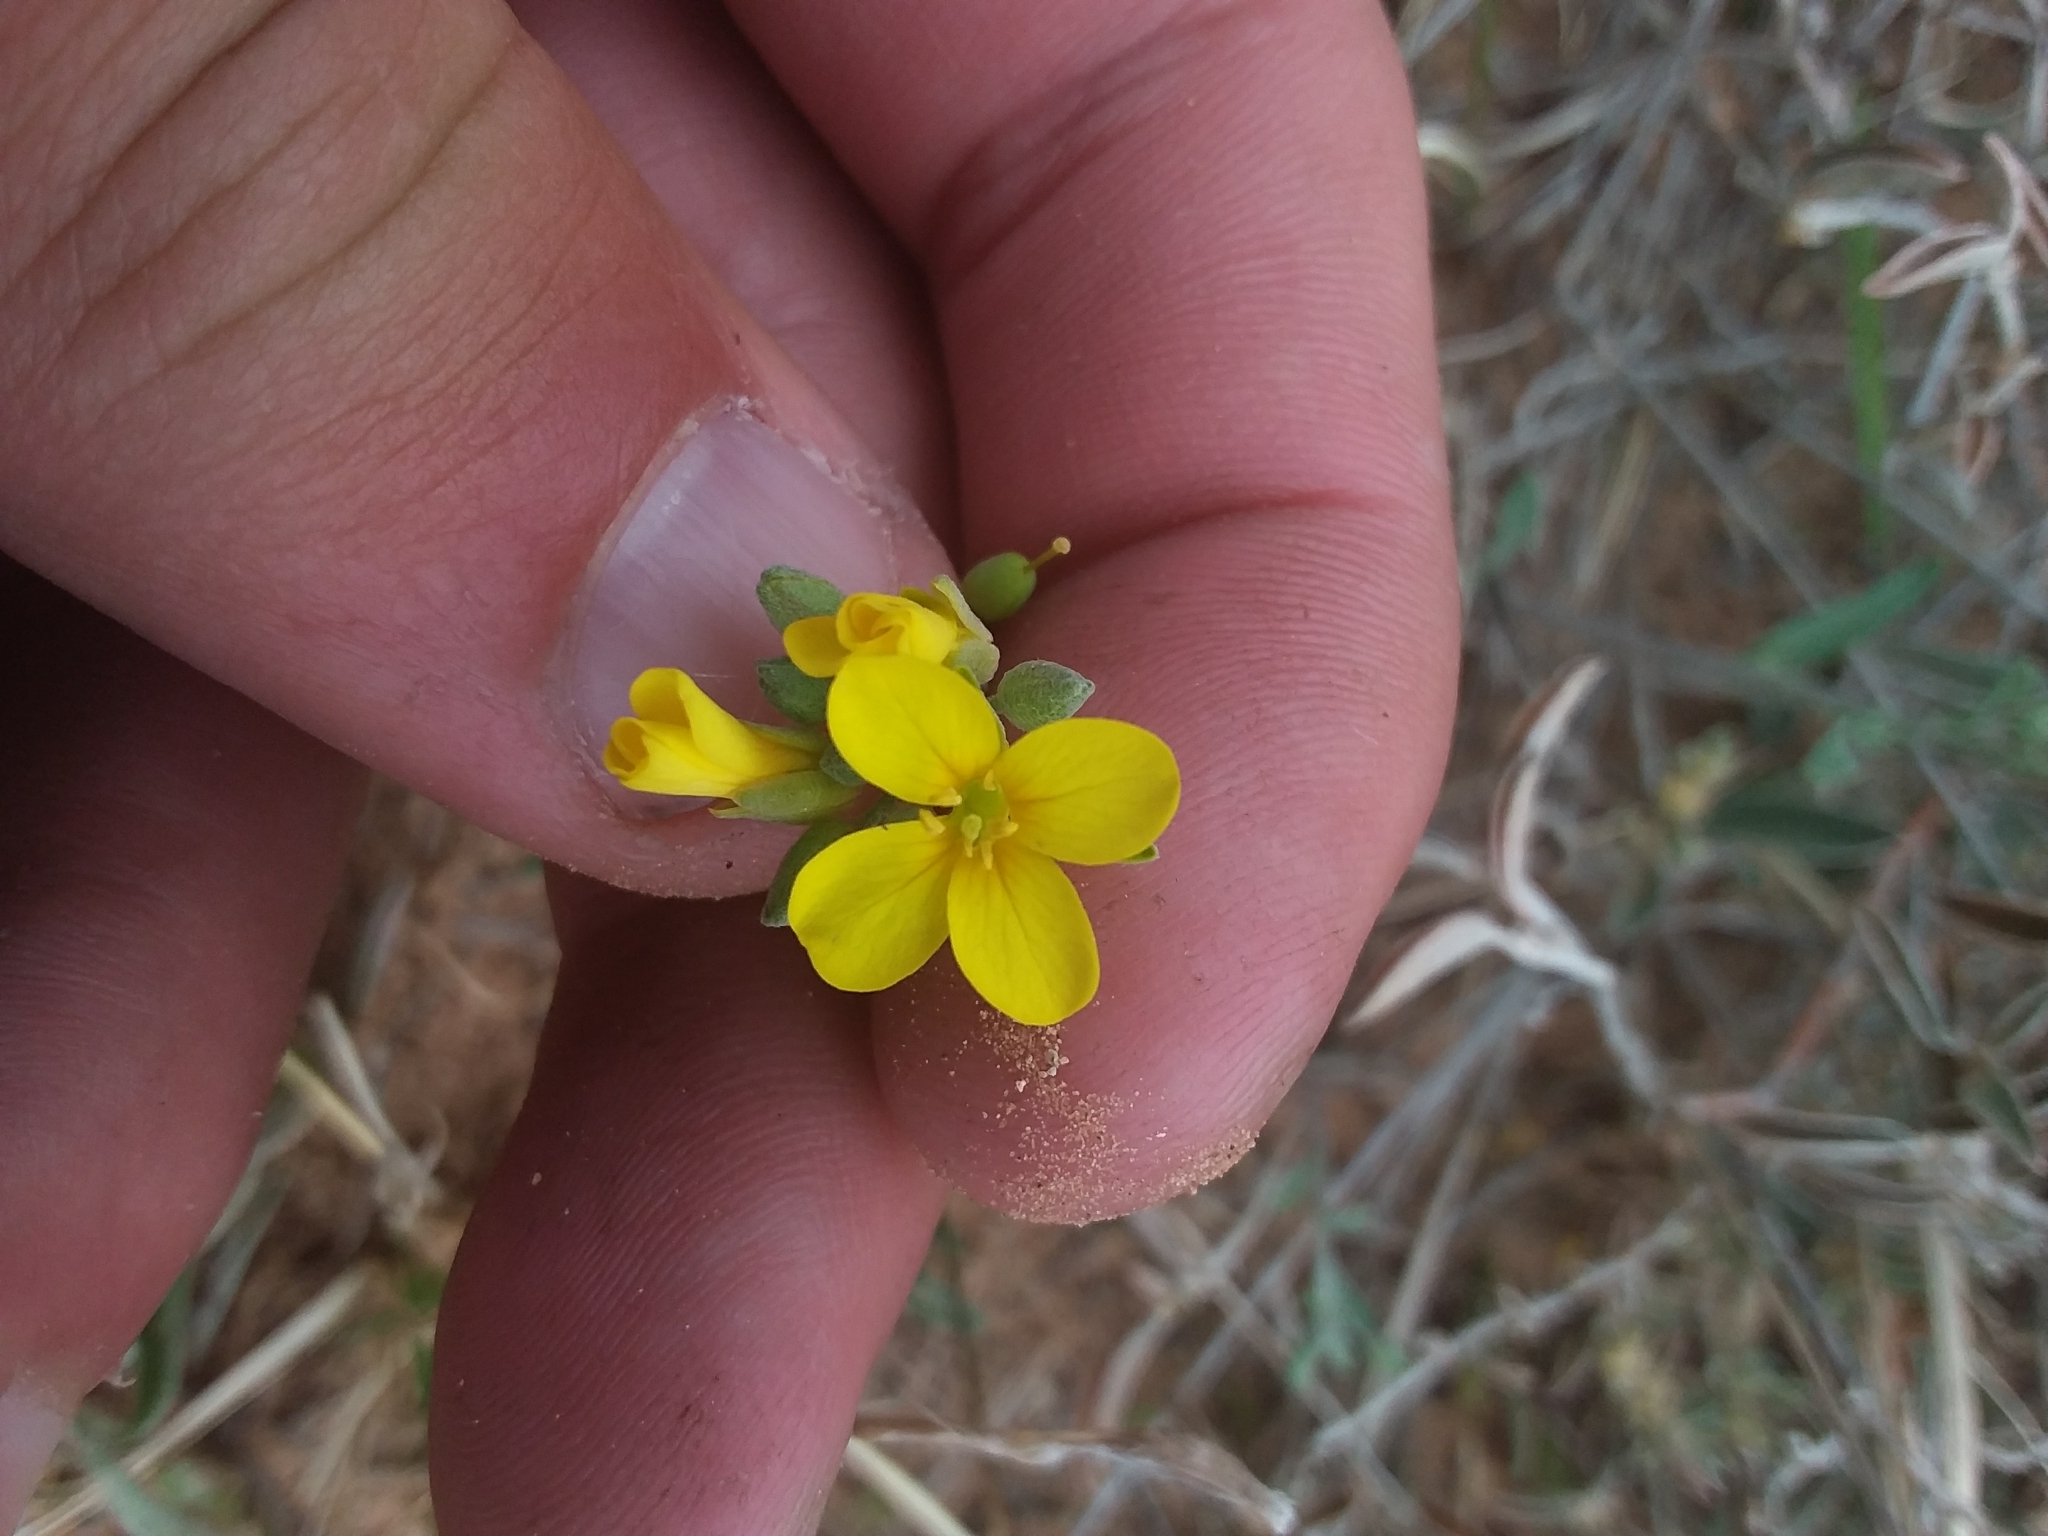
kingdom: Plantae
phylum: Tracheophyta
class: Magnoliopsida
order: Brassicales
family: Brassicaceae
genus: Physaria
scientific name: Physaria gordonii
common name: Gordon's bladderpod
